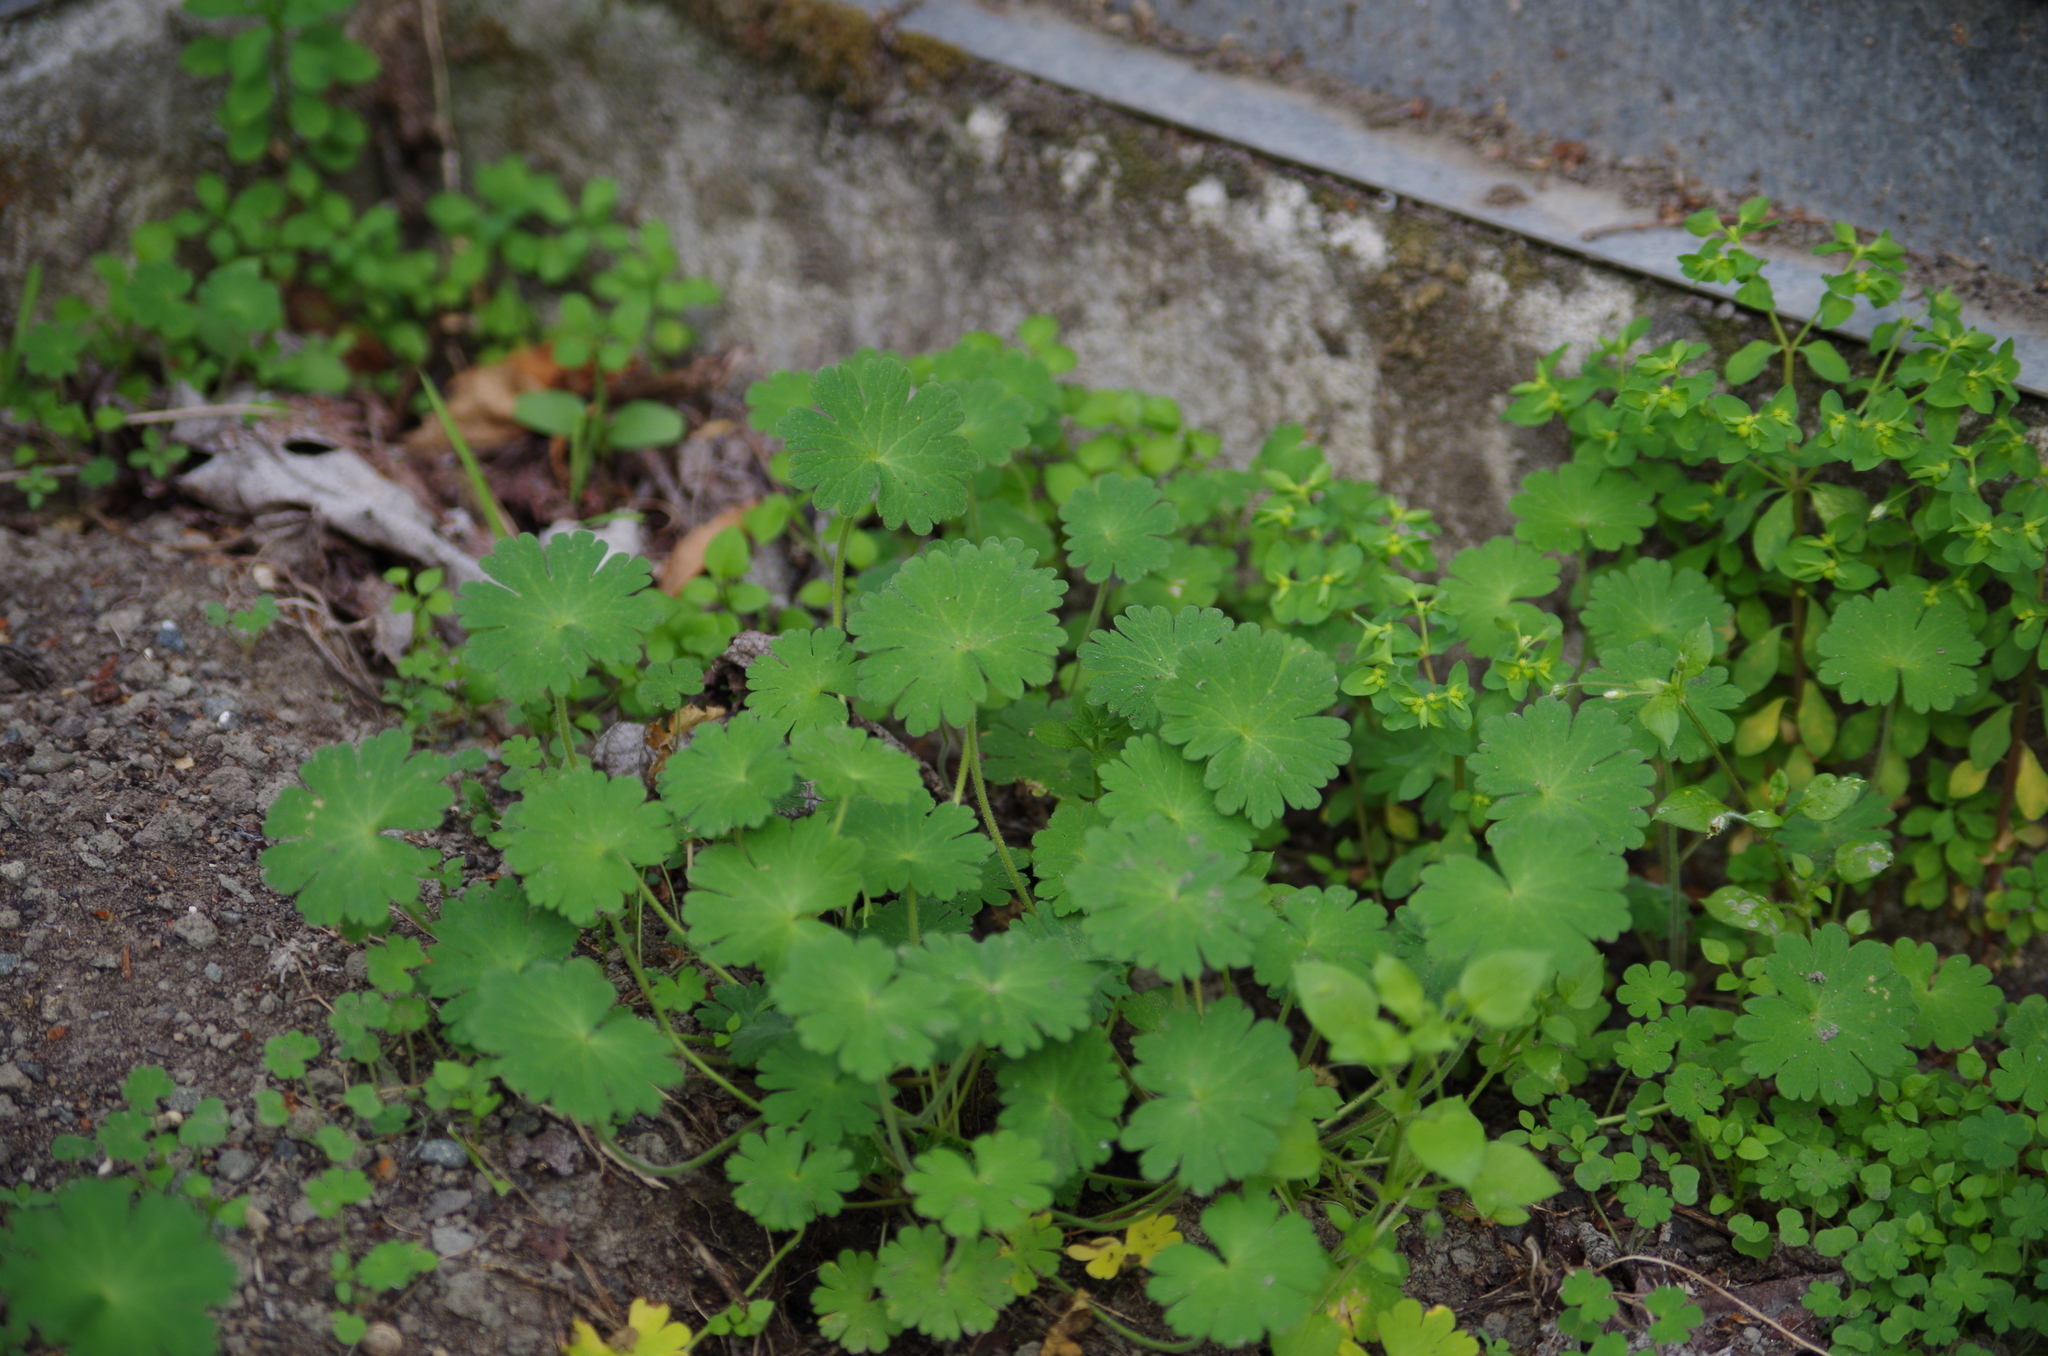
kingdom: Plantae
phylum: Tracheophyta
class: Magnoliopsida
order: Geraniales
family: Geraniaceae
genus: Geranium
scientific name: Geranium molle
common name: Dove's-foot crane's-bill
